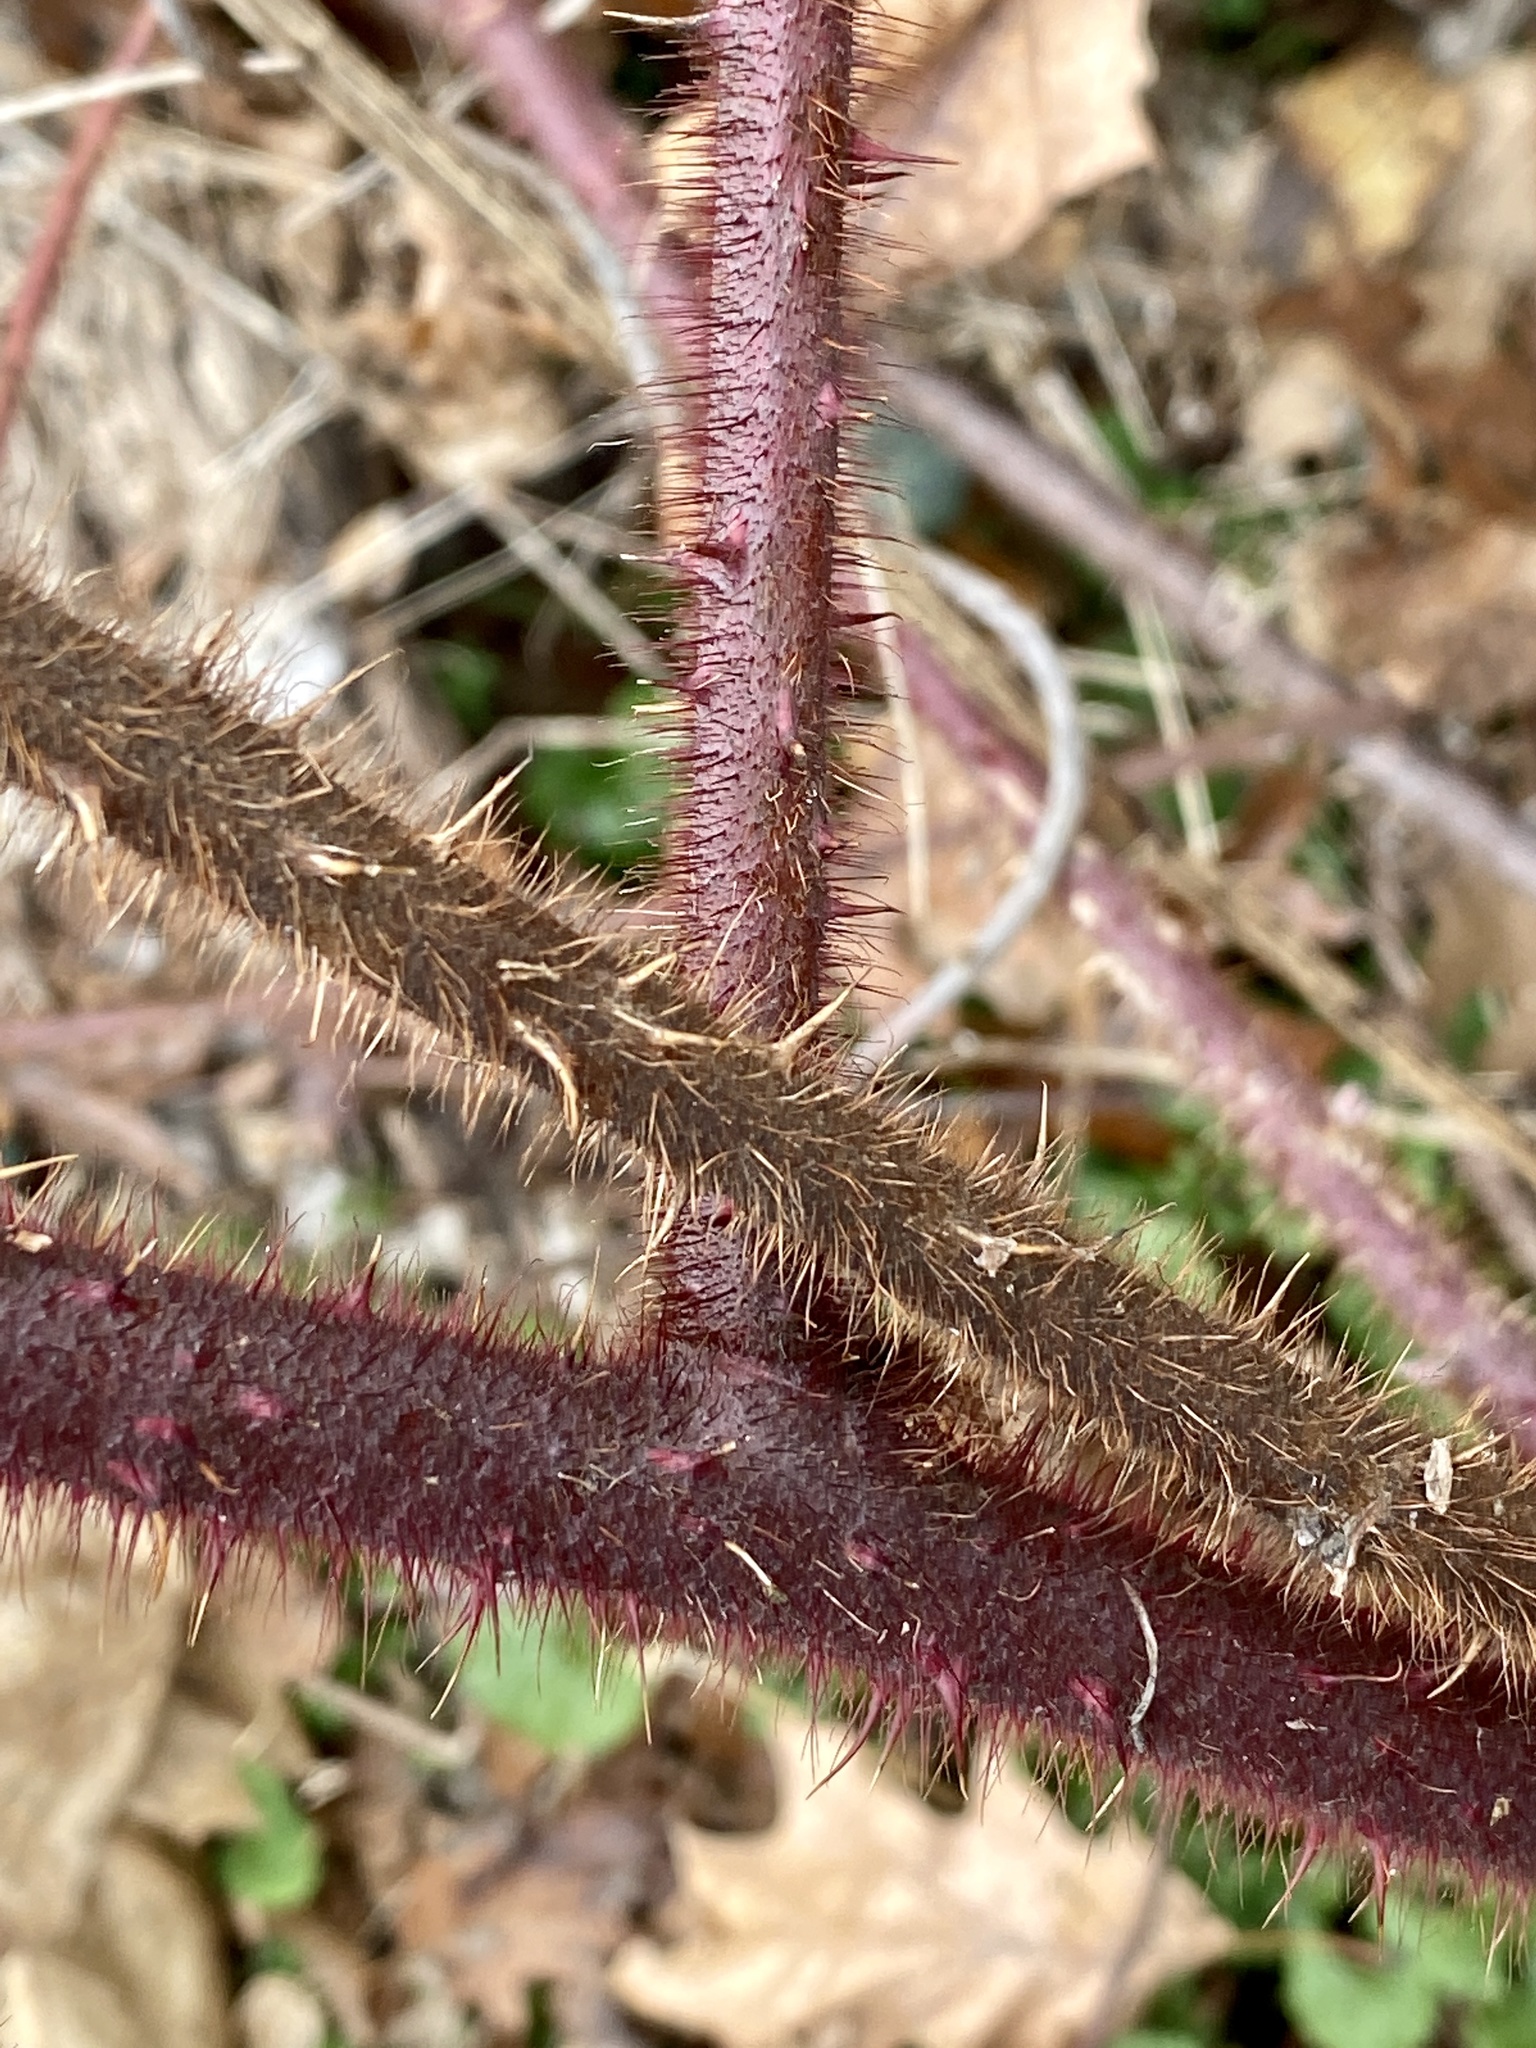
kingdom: Plantae
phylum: Tracheophyta
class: Magnoliopsida
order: Rosales
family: Rosaceae
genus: Rubus
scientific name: Rubus phoenicolasius
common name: Japanese wineberry
